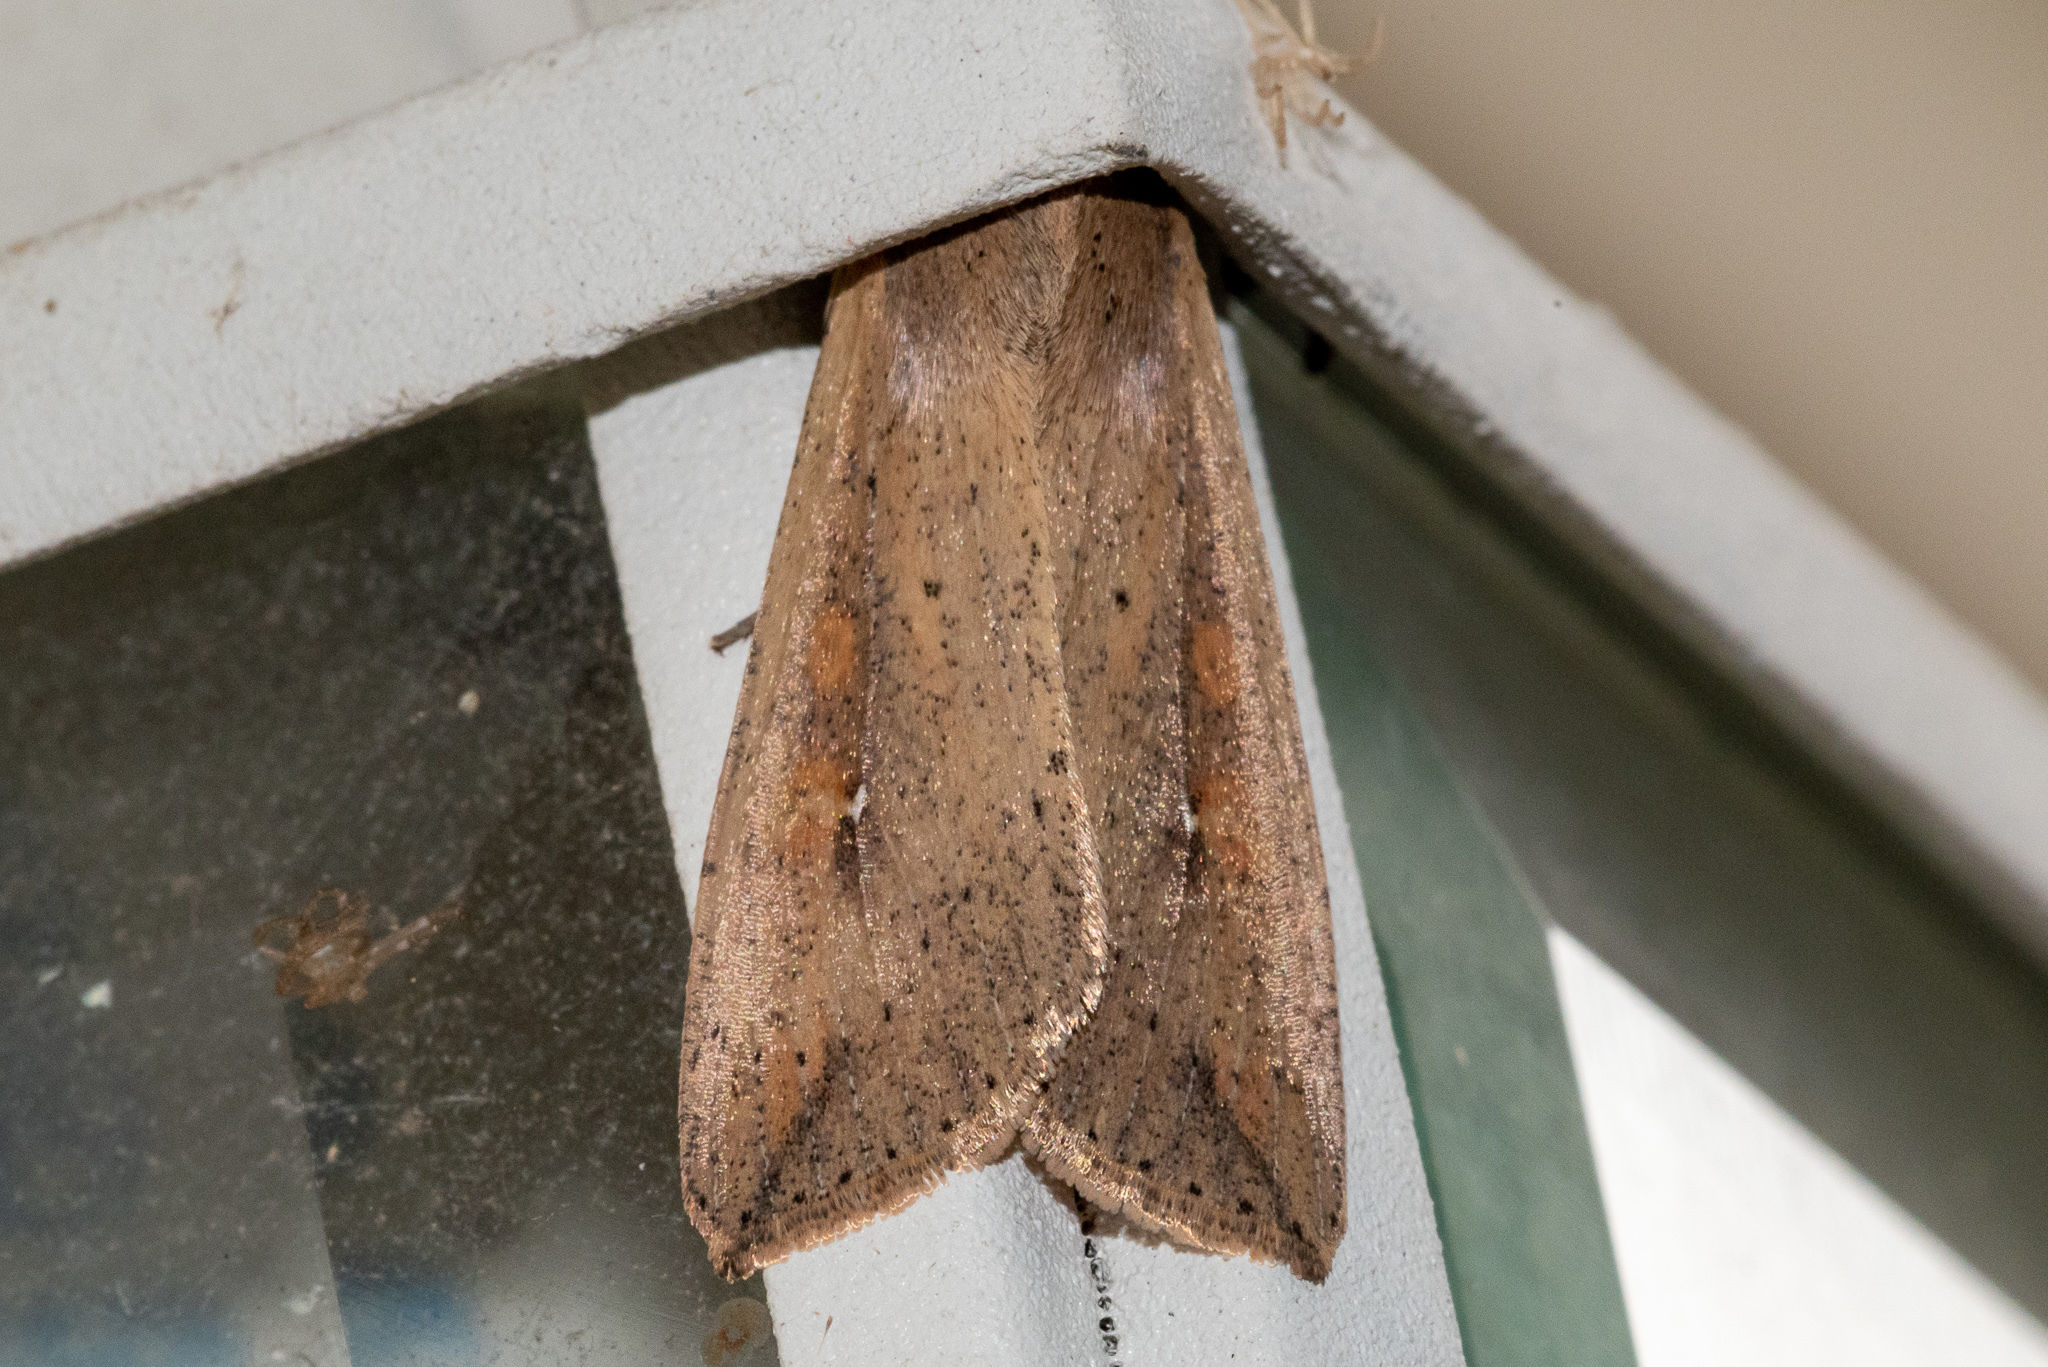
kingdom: Animalia
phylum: Arthropoda
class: Insecta
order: Lepidoptera
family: Noctuidae
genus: Mythimna
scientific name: Mythimna unipuncta
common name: White-speck
